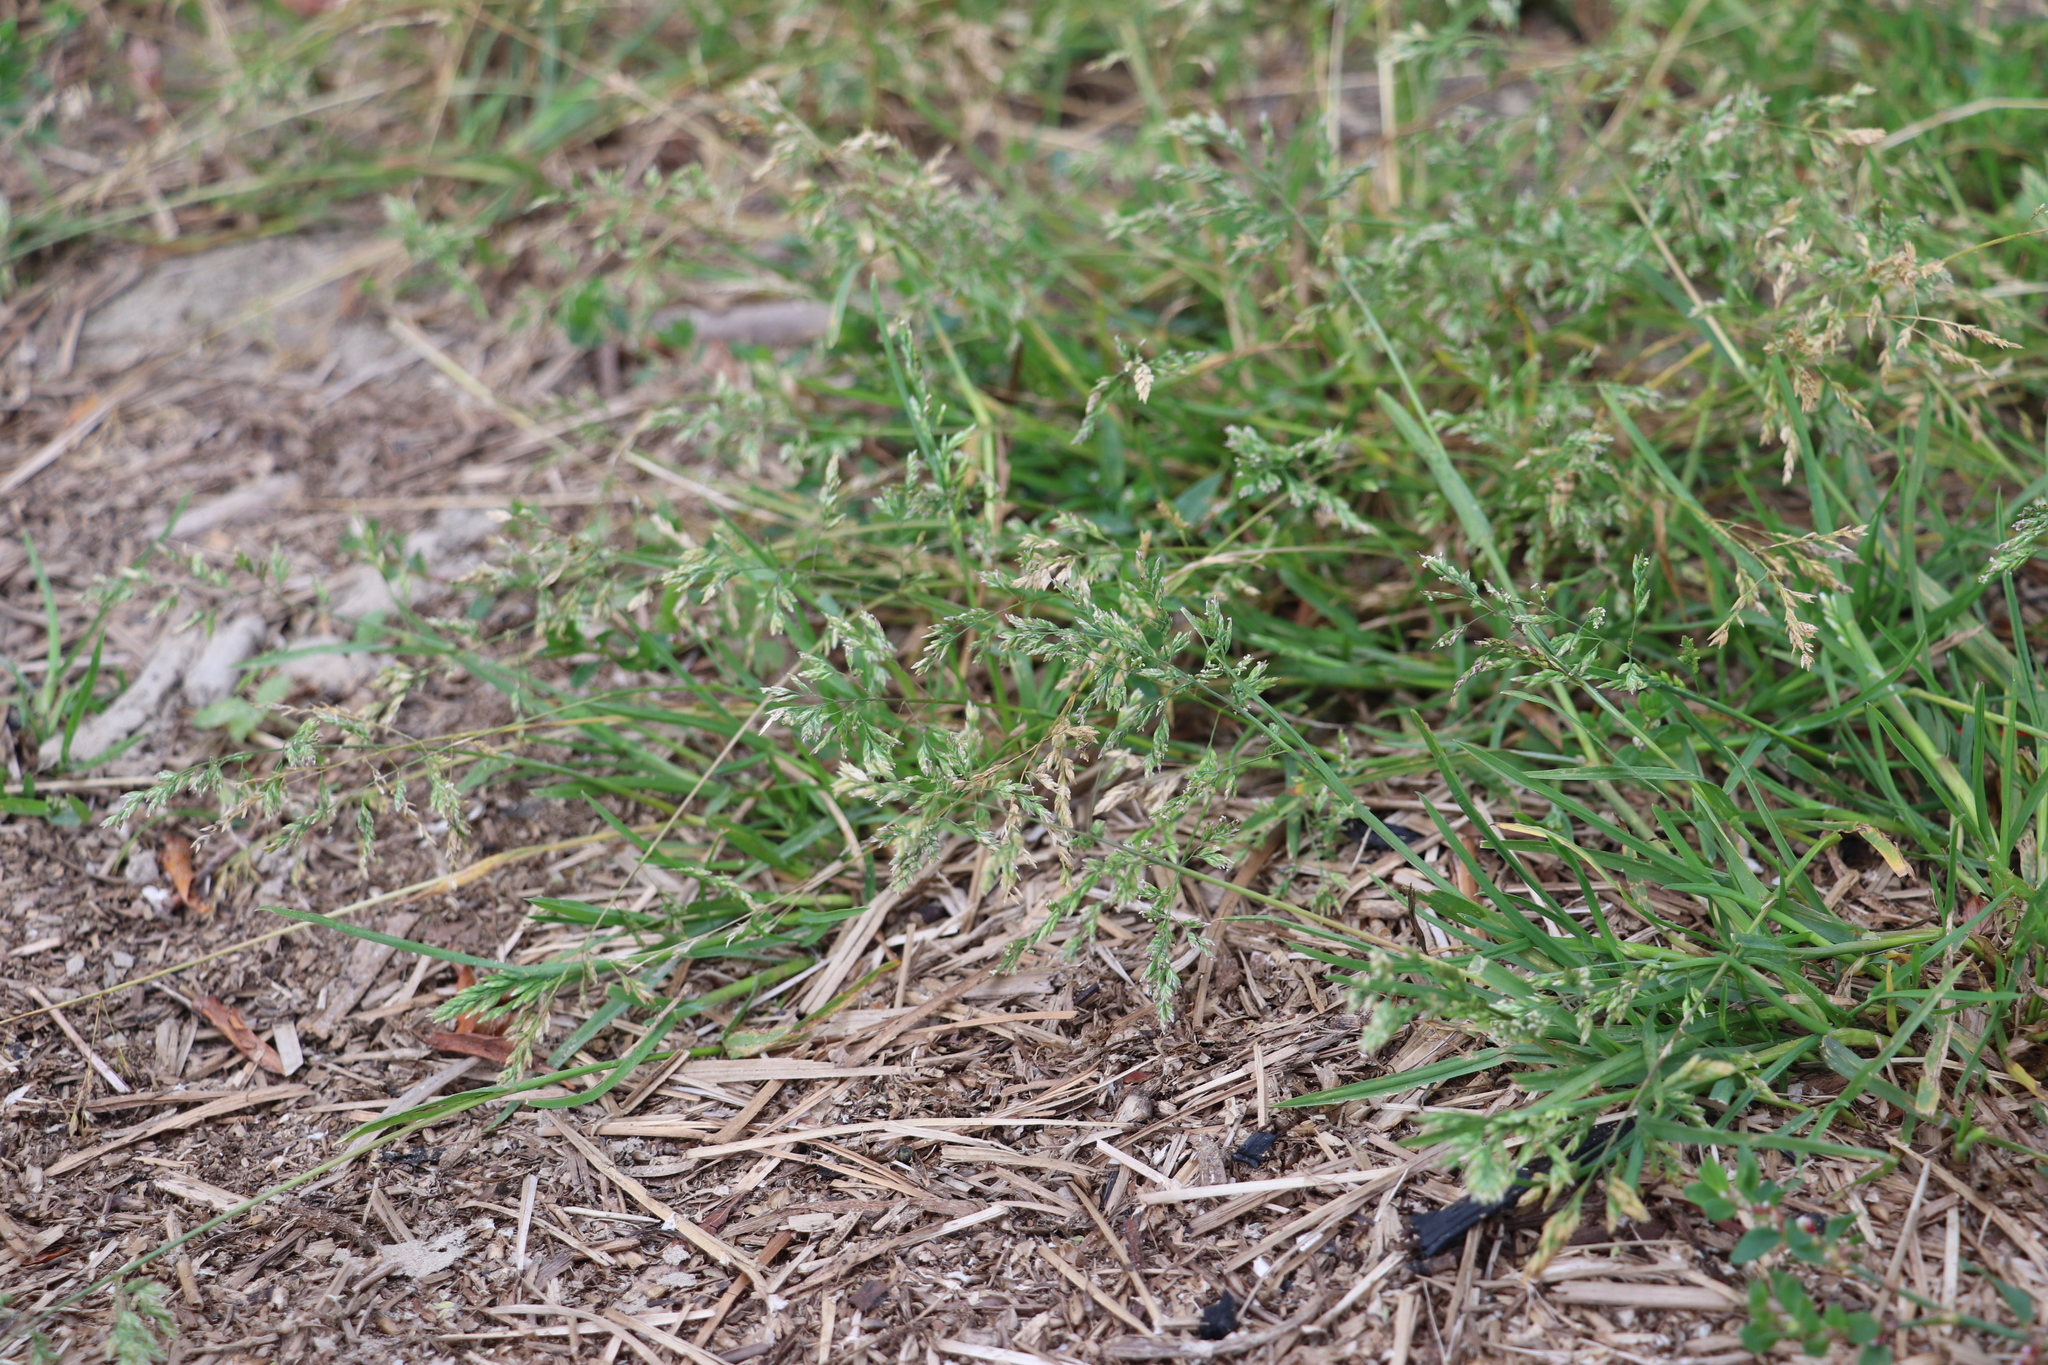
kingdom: Plantae
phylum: Tracheophyta
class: Liliopsida
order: Poales
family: Poaceae
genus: Poa
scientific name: Poa annua
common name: Annual bluegrass
